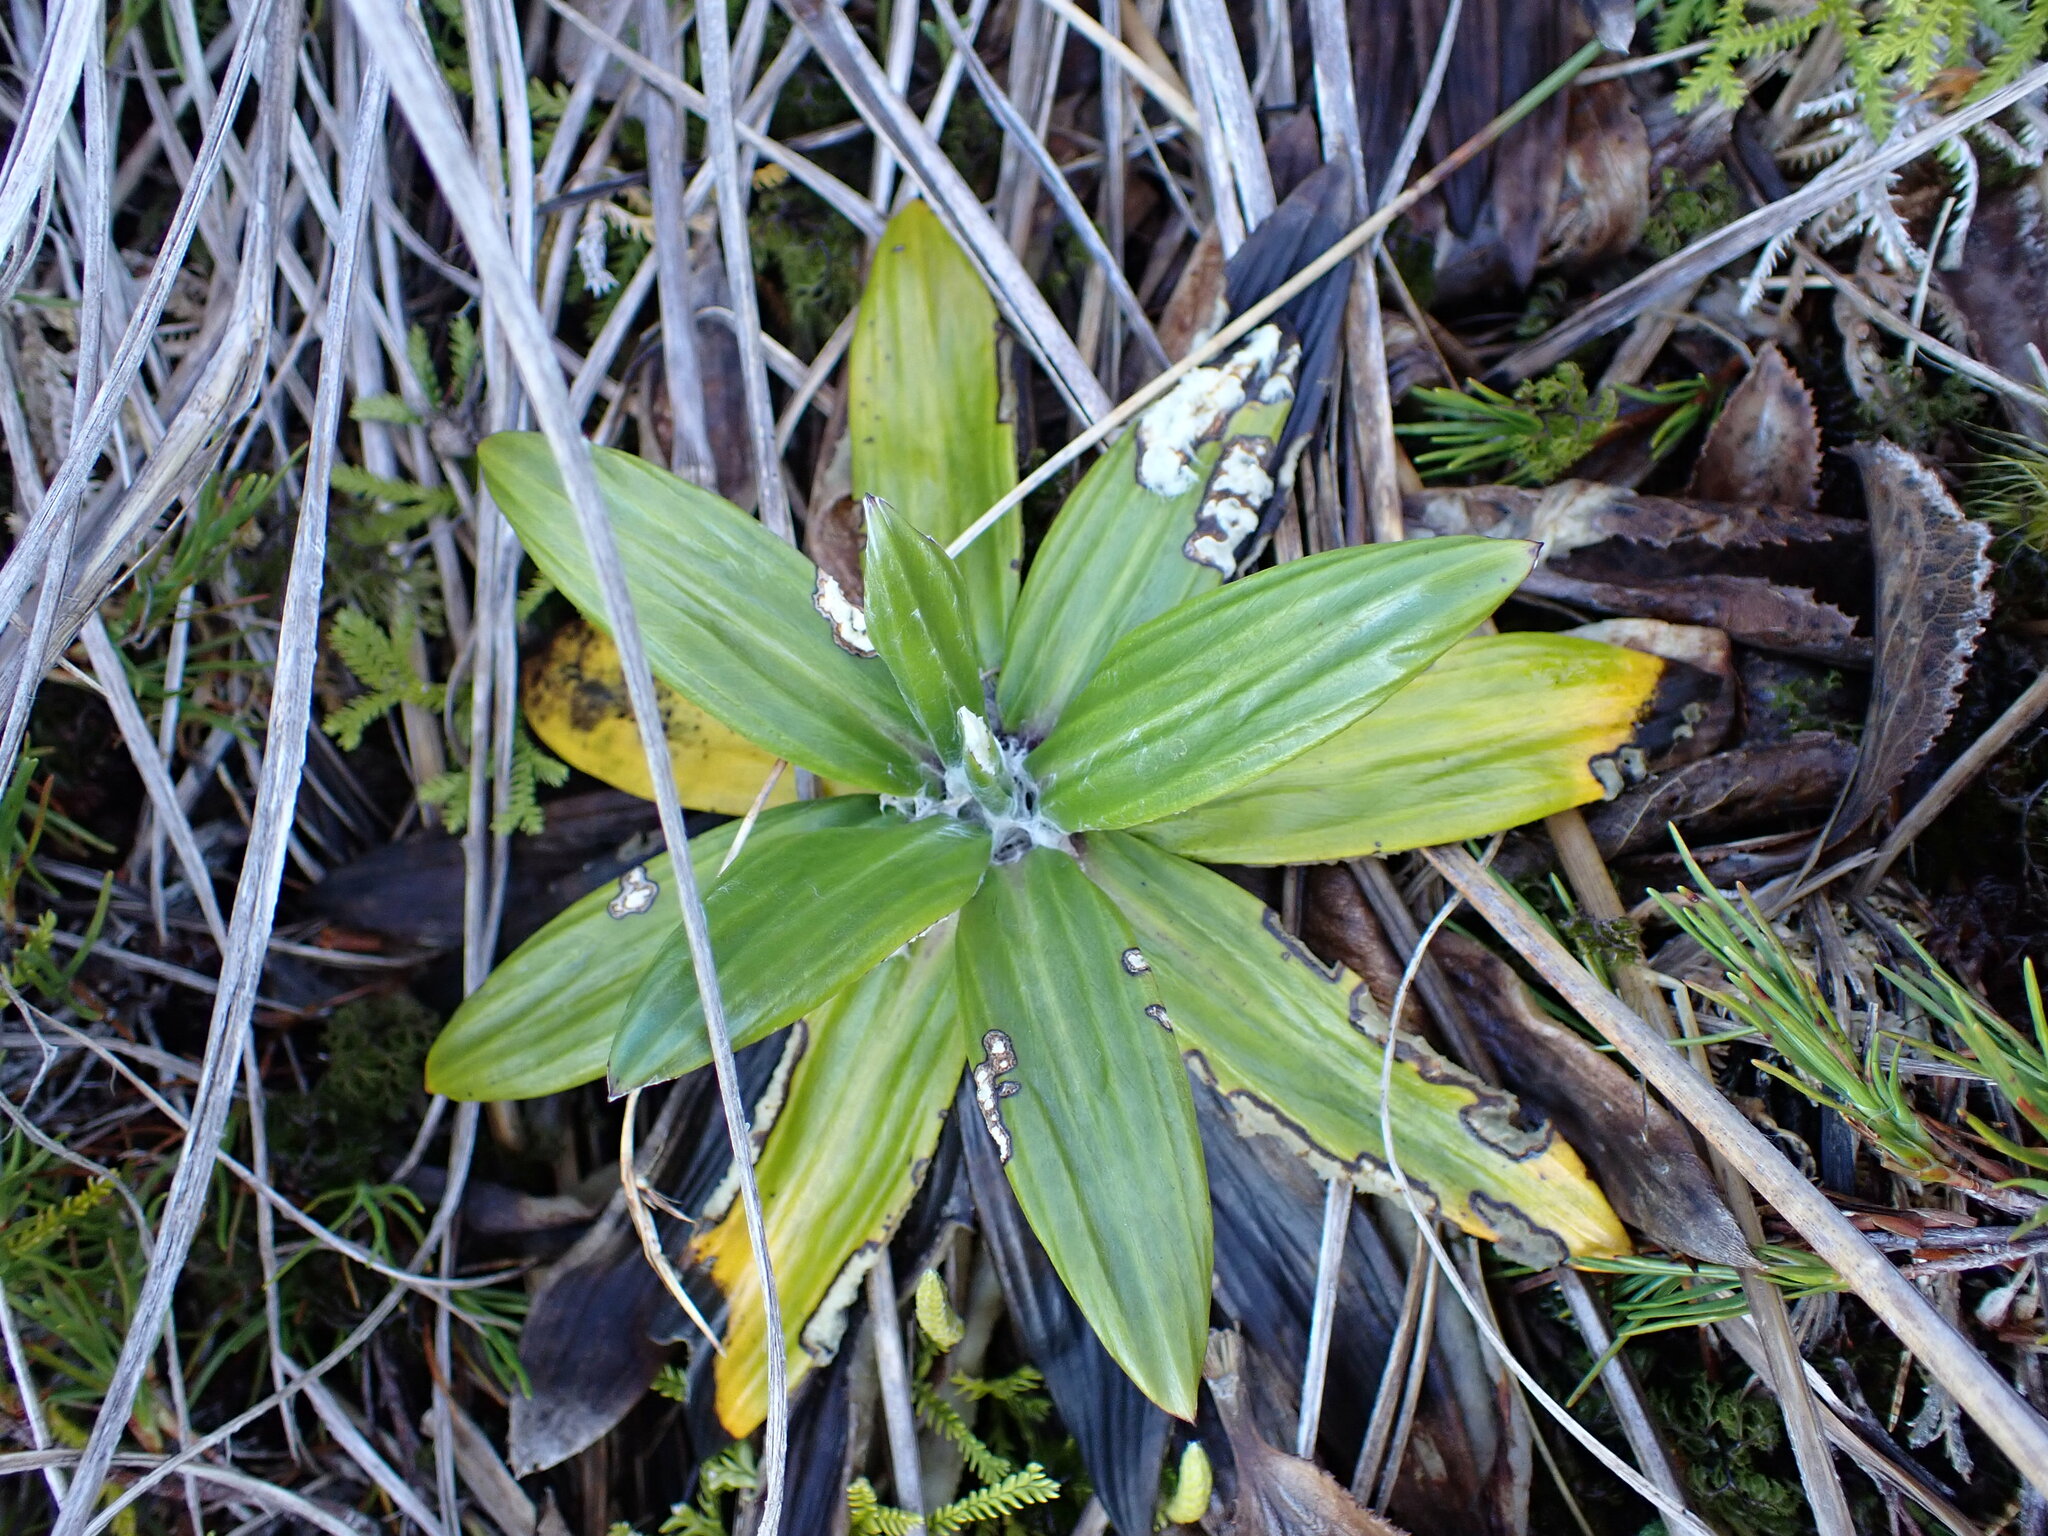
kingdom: Plantae
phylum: Tracheophyta
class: Magnoliopsida
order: Asterales
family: Asteraceae
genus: Celmisia
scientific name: Celmisia spectabilis
